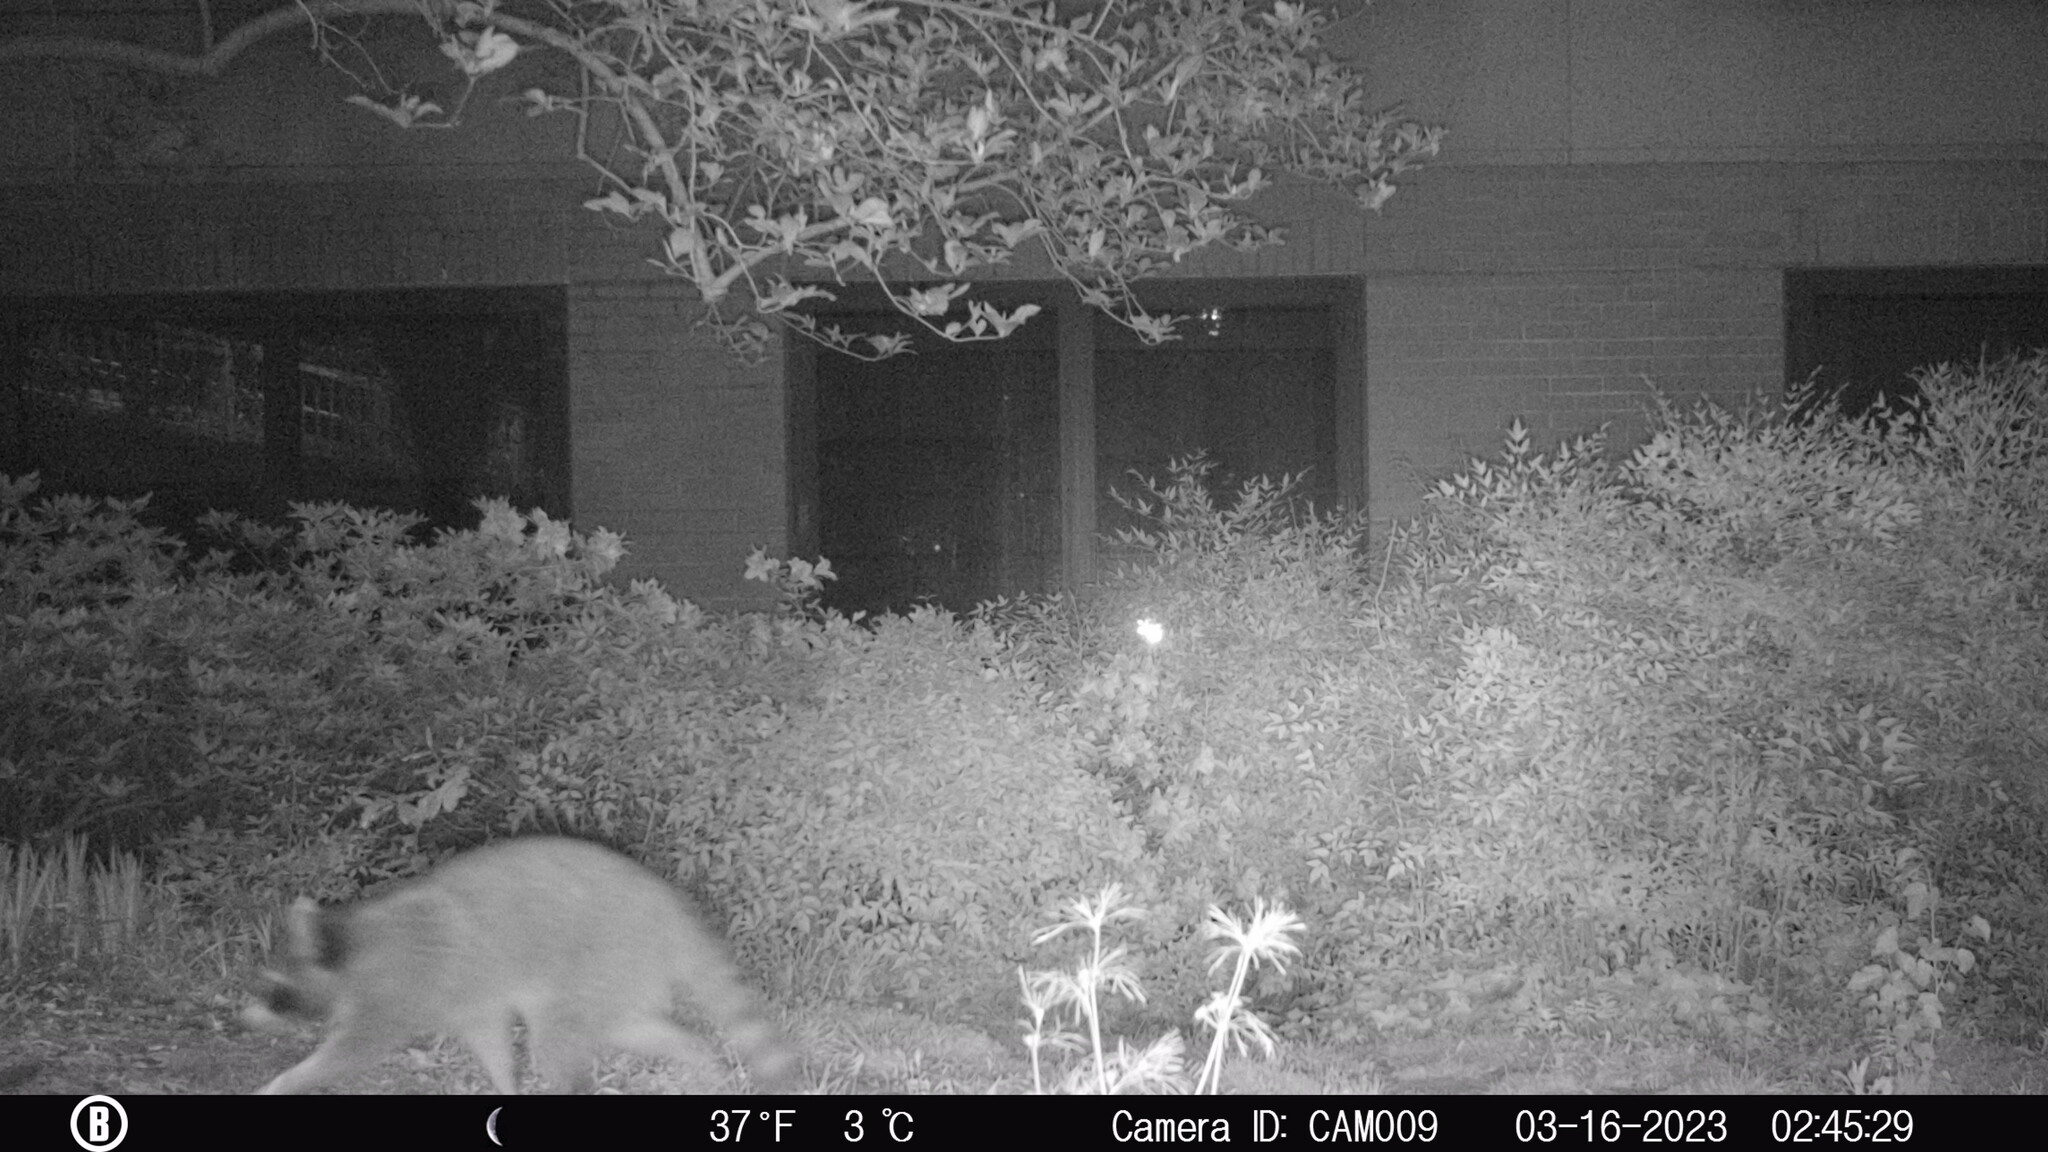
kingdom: Animalia
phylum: Chordata
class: Mammalia
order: Carnivora
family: Procyonidae
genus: Procyon
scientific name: Procyon lotor
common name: Raccoon
